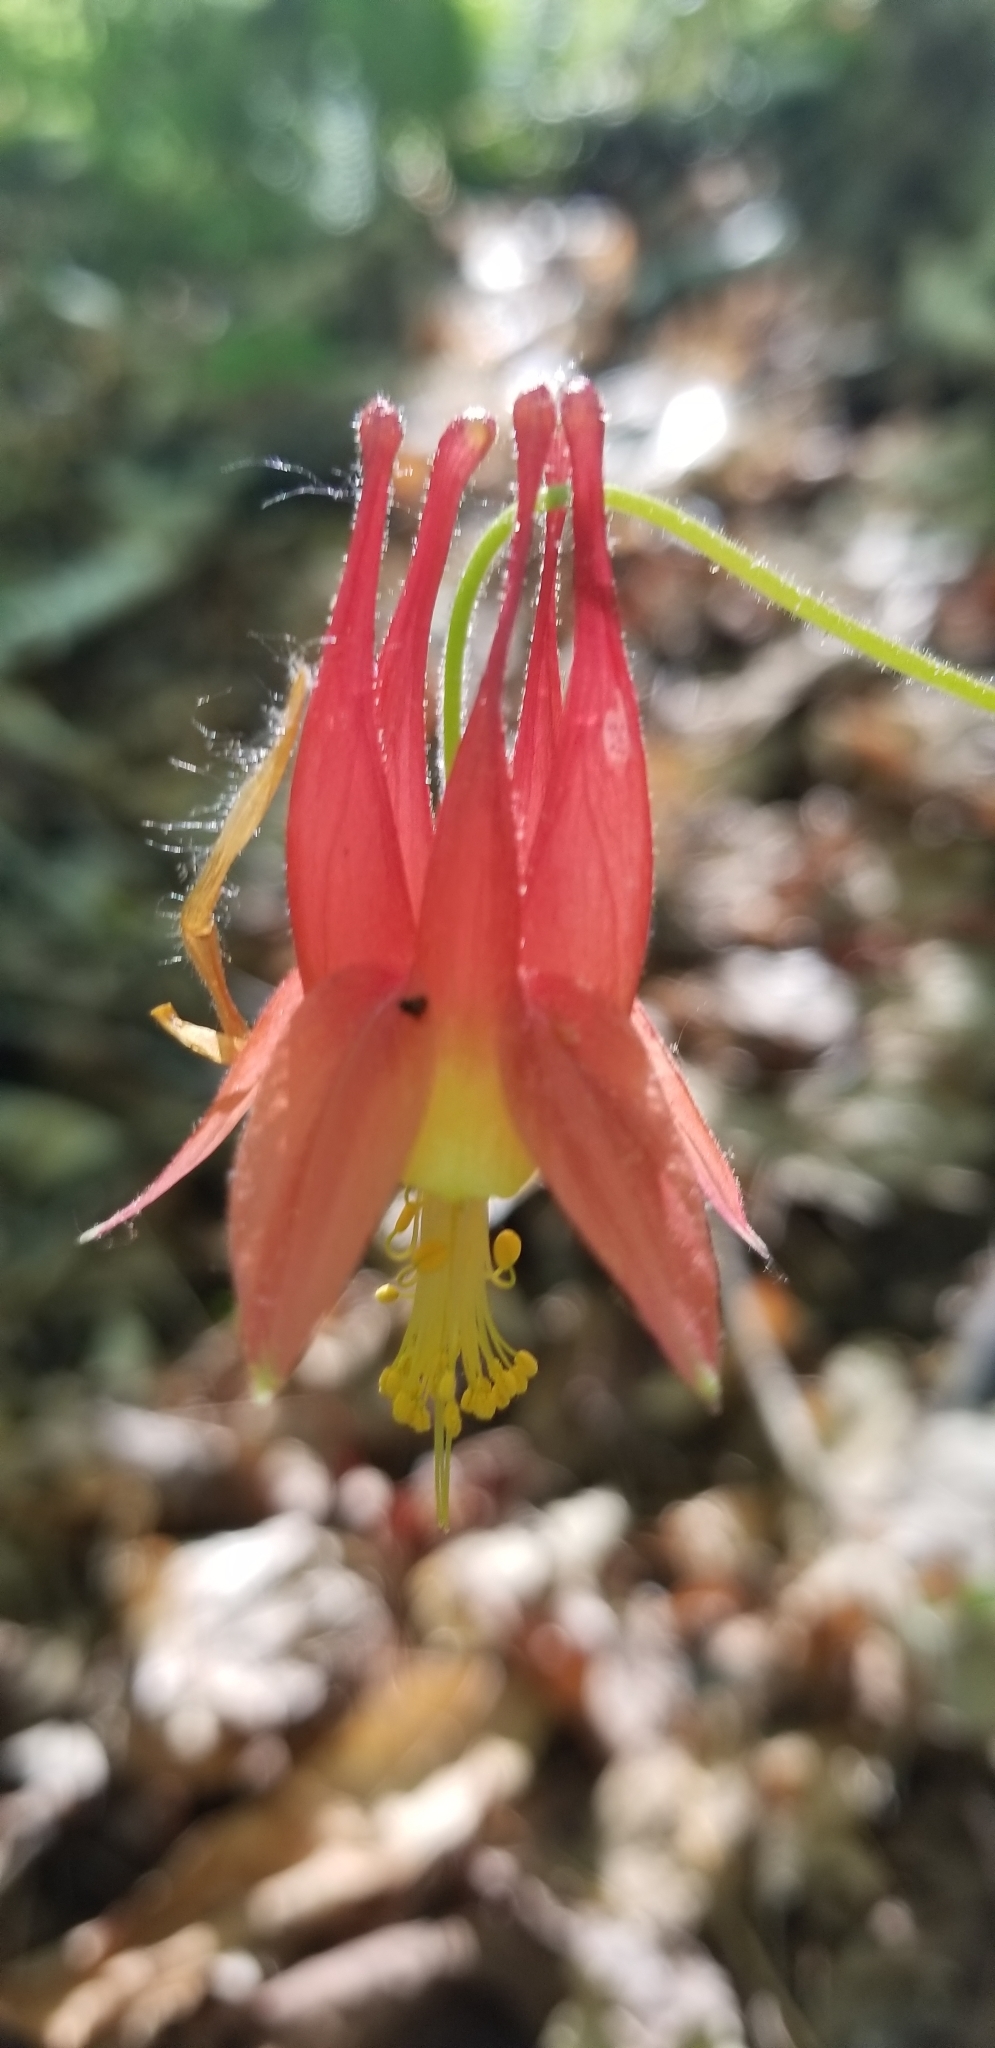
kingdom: Plantae
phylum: Tracheophyta
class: Magnoliopsida
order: Ranunculales
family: Ranunculaceae
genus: Aquilegia
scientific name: Aquilegia canadensis
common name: American columbine
